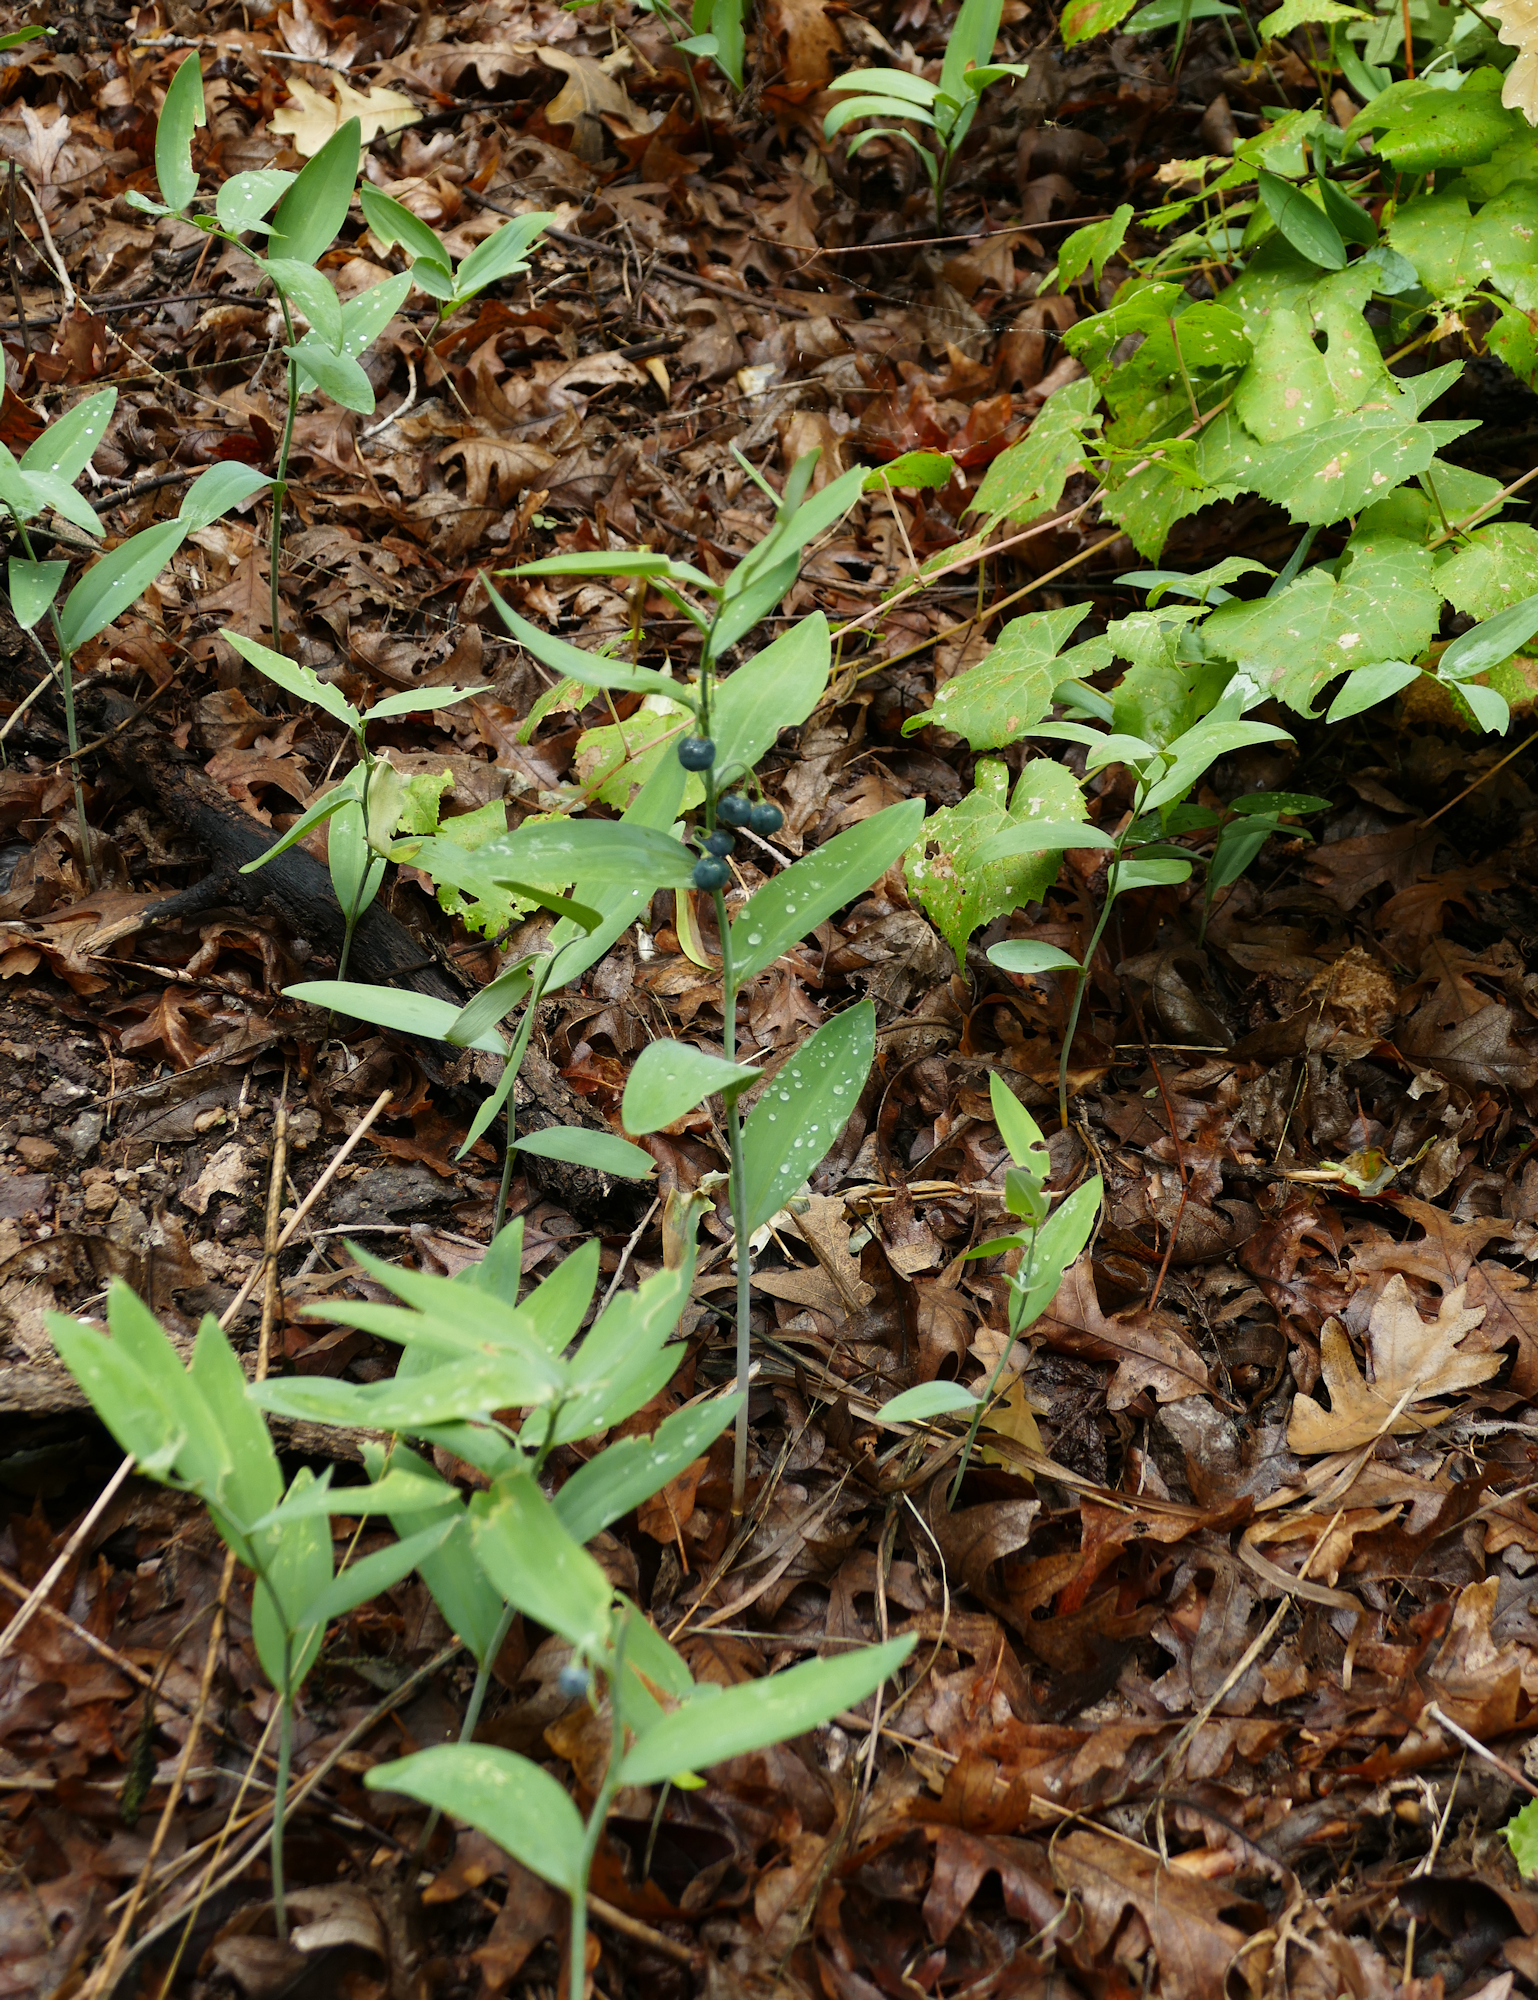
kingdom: Plantae
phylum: Tracheophyta
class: Liliopsida
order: Asparagales
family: Asparagaceae
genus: Polygonatum
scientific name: Polygonatum biflorum
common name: American solomon's-seal
